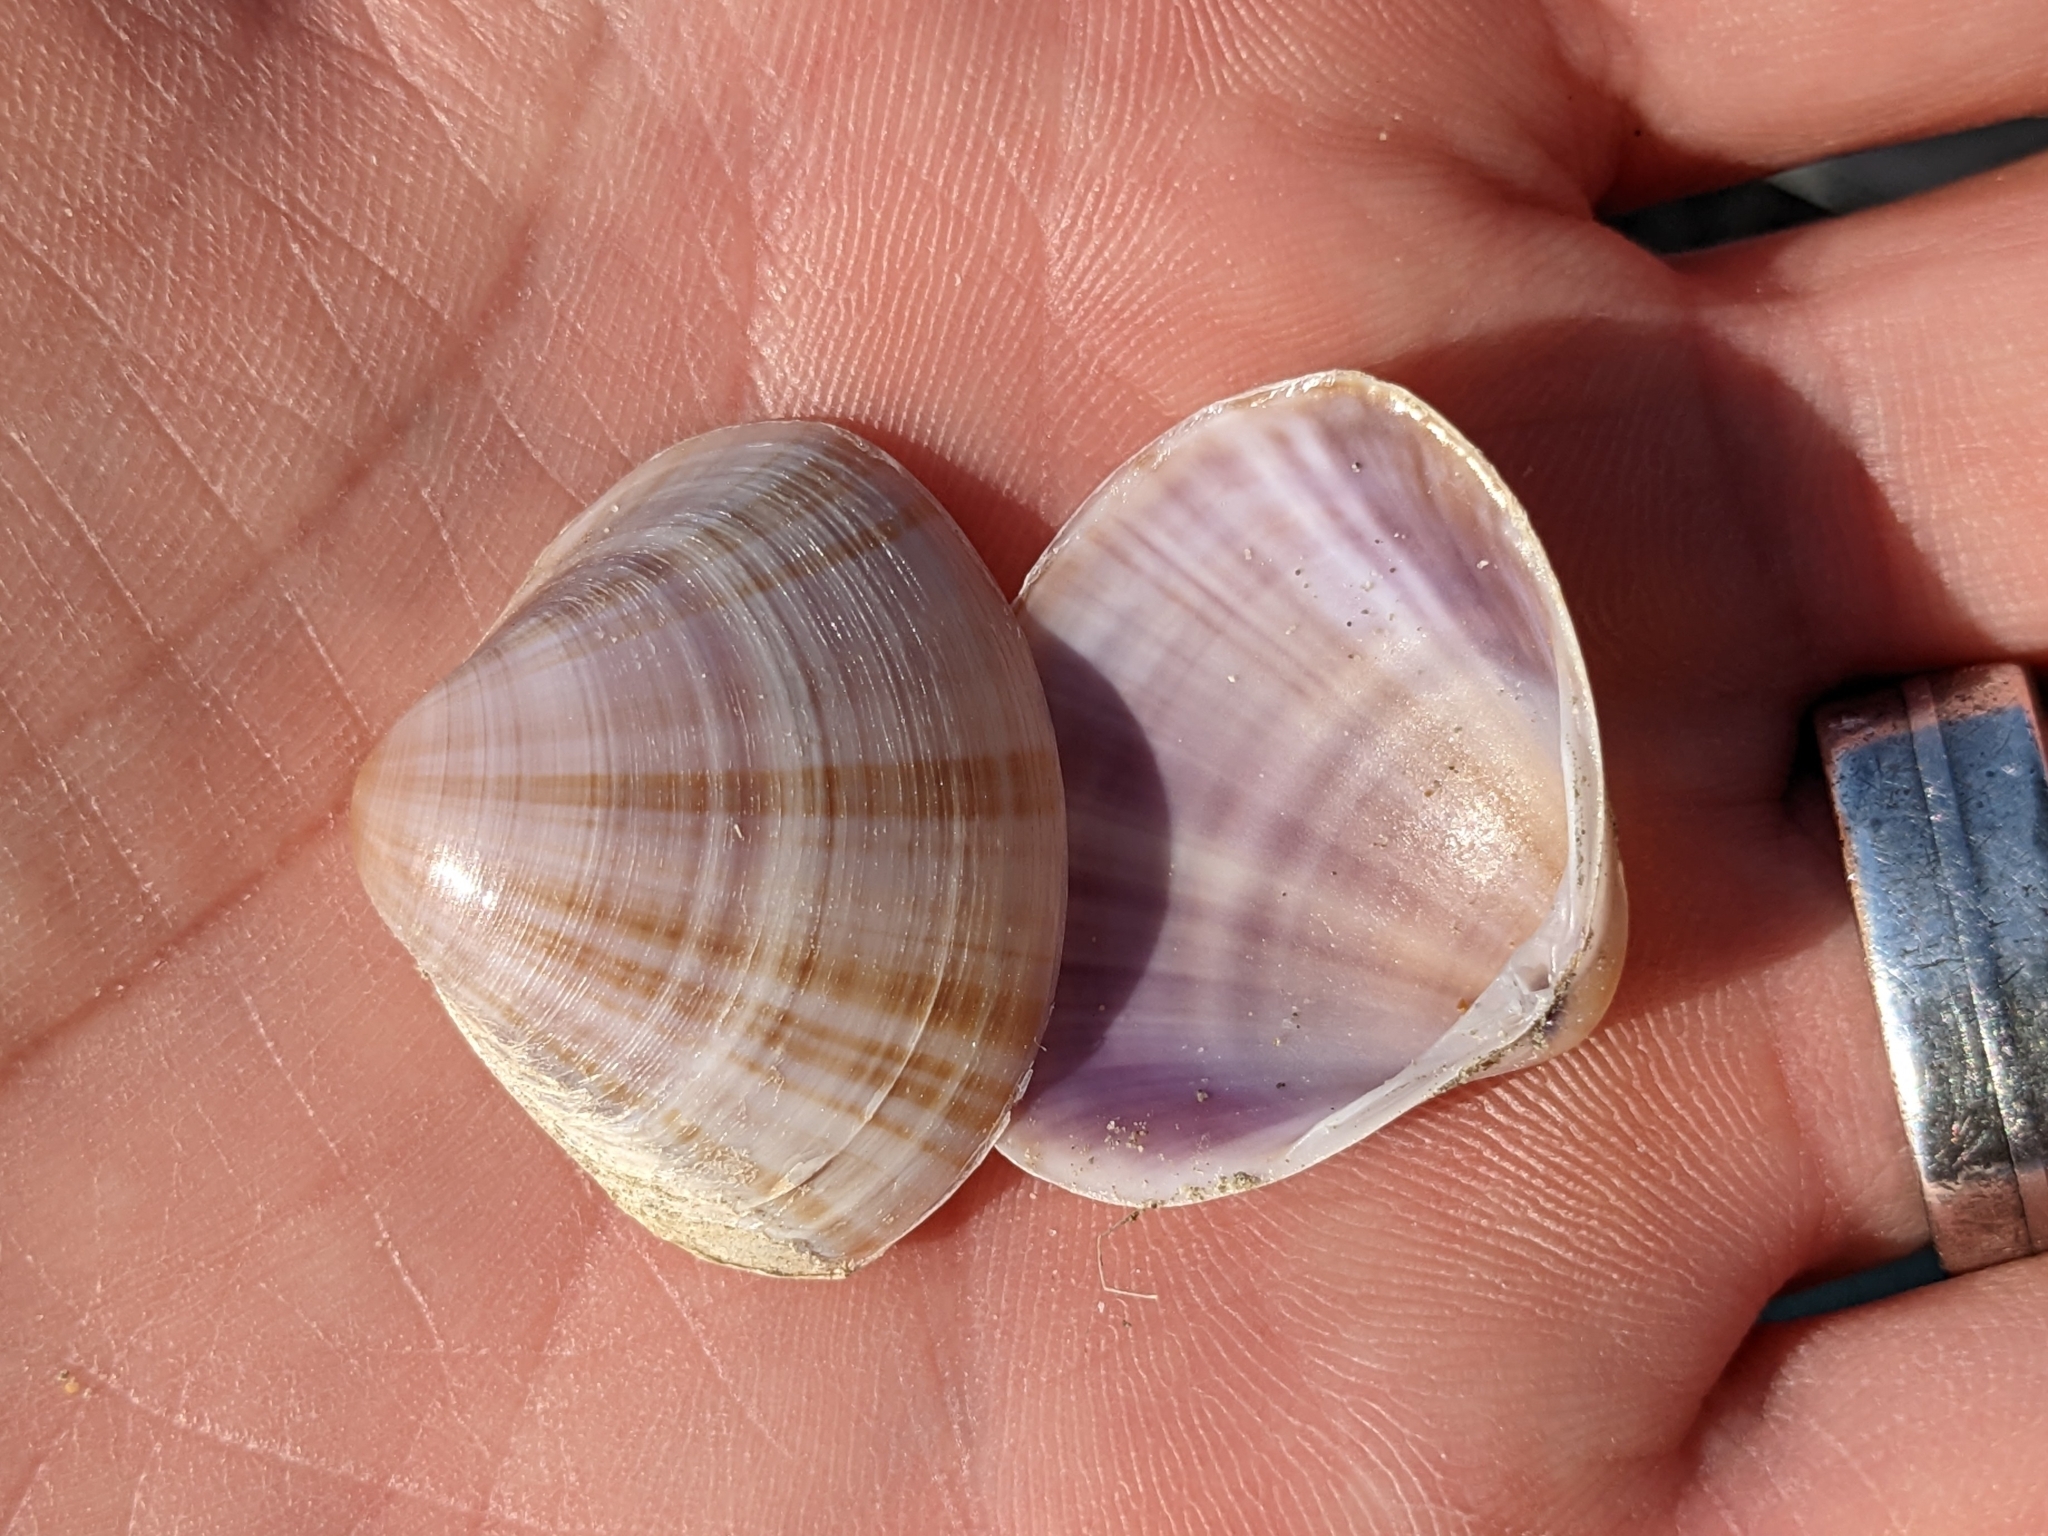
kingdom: Animalia
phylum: Mollusca
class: Bivalvia
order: Venerida
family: Mactridae
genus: Mactra
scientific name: Mactra stultorum
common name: Rayed trough shell
